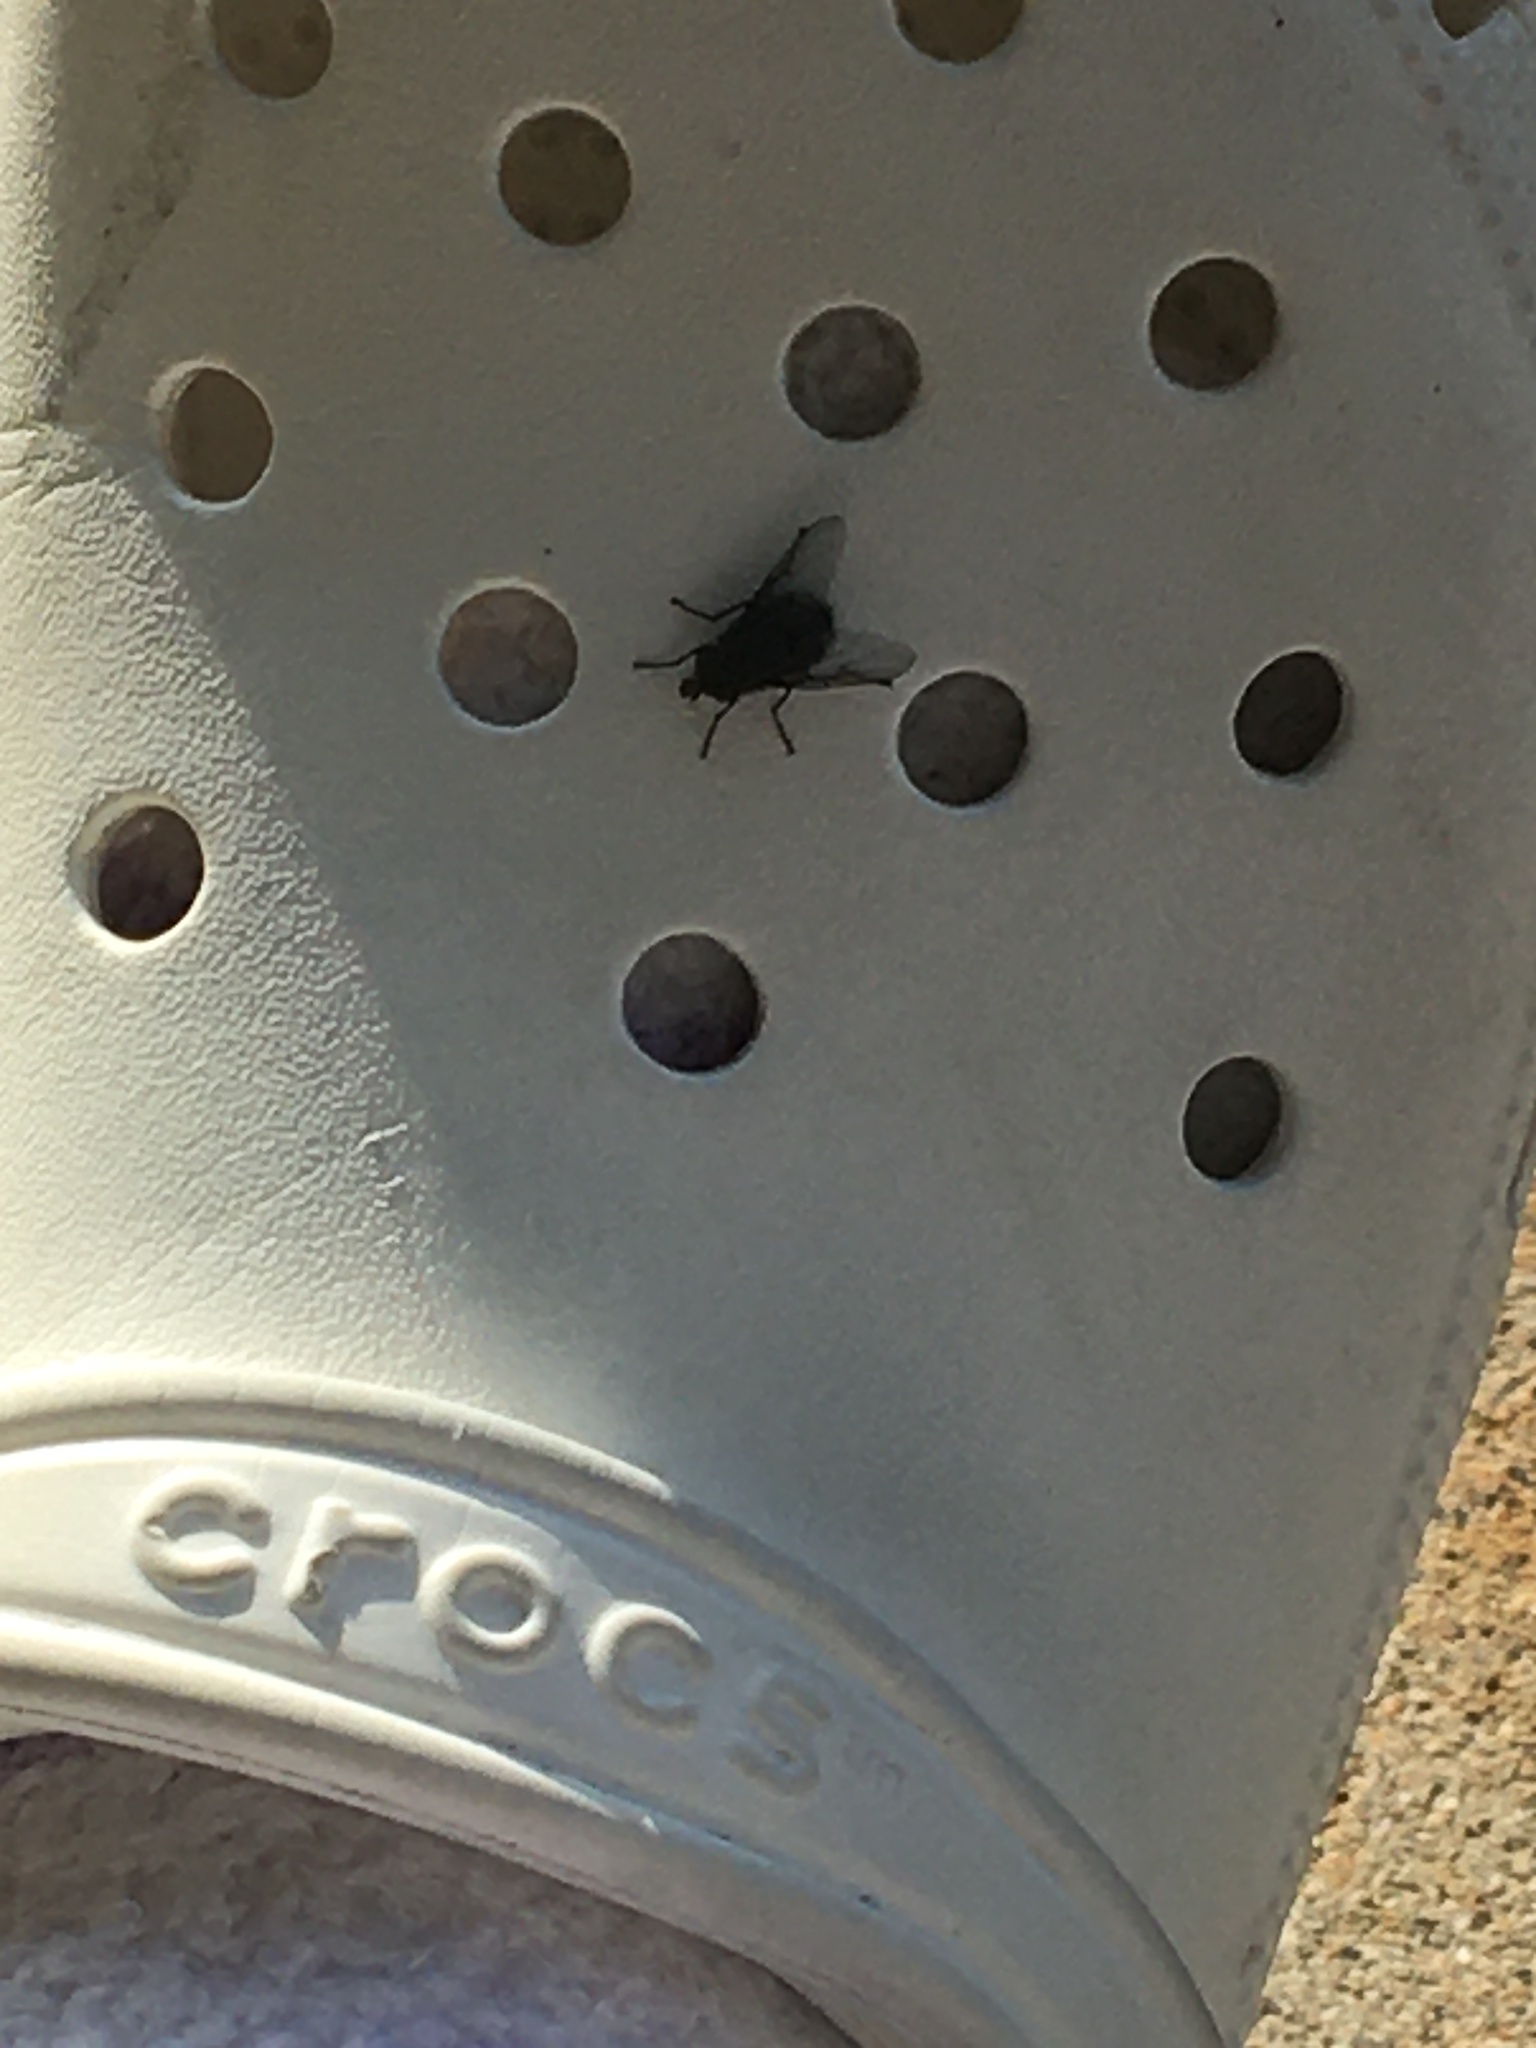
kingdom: Animalia
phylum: Arthropoda
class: Insecta
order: Diptera
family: Calliphoridae
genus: Cynomya
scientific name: Cynomya cadaverina
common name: Shiny blue bottle fly
